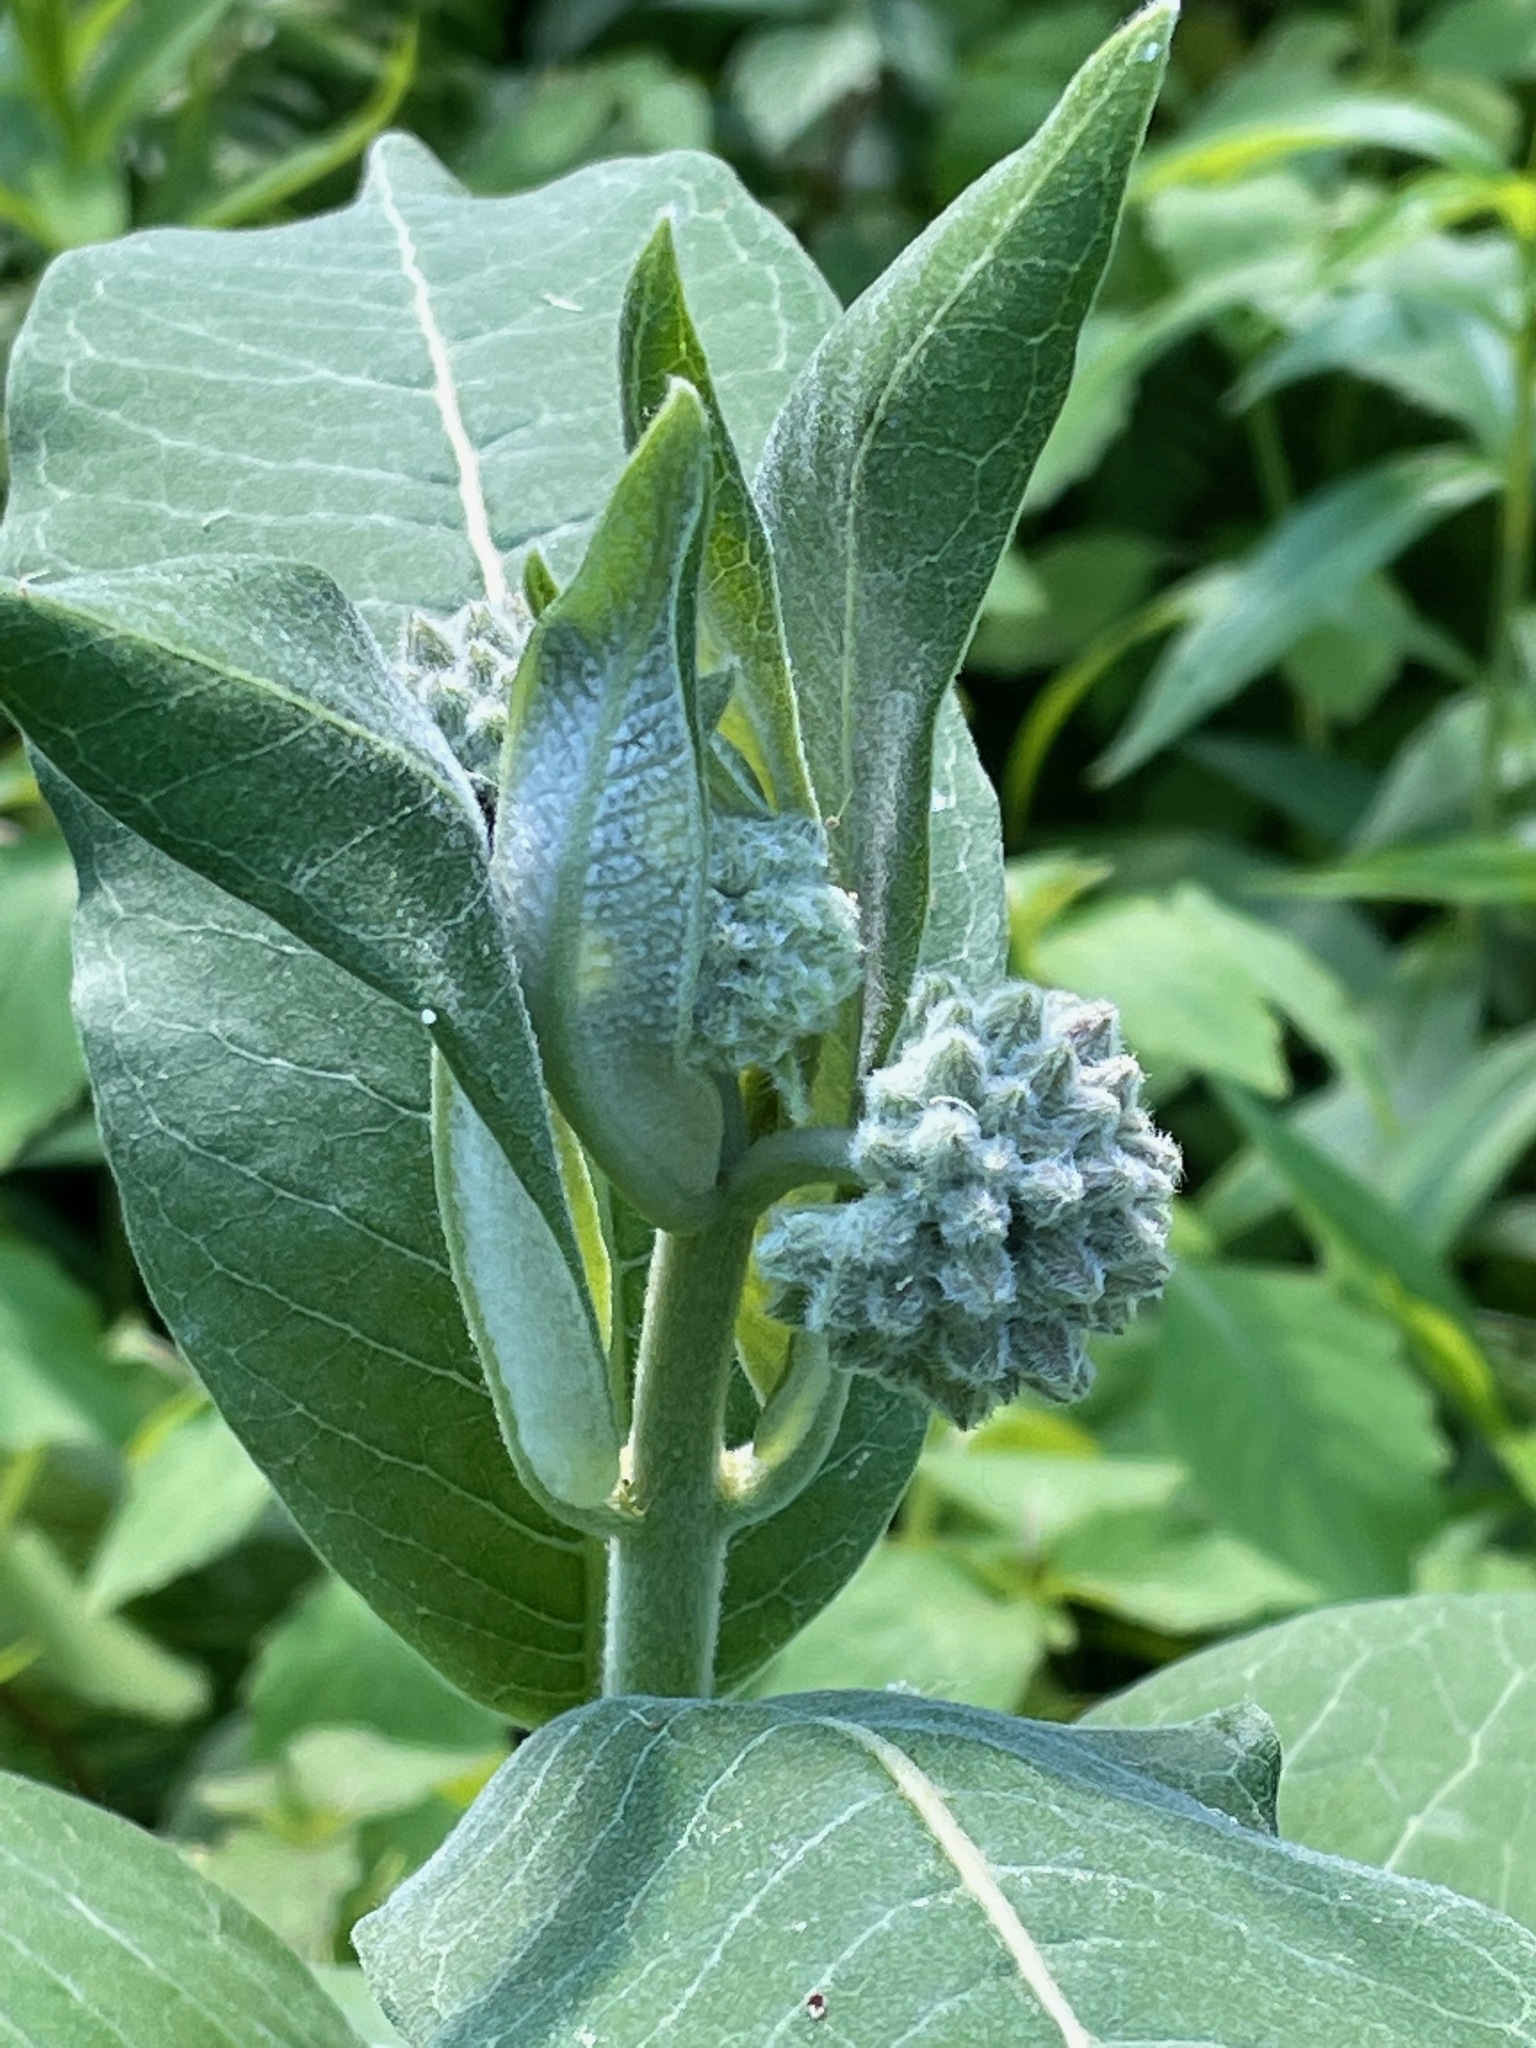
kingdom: Plantae
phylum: Tracheophyta
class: Magnoliopsida
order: Gentianales
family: Apocynaceae
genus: Asclepias
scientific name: Asclepias syriaca
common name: Common milkweed
